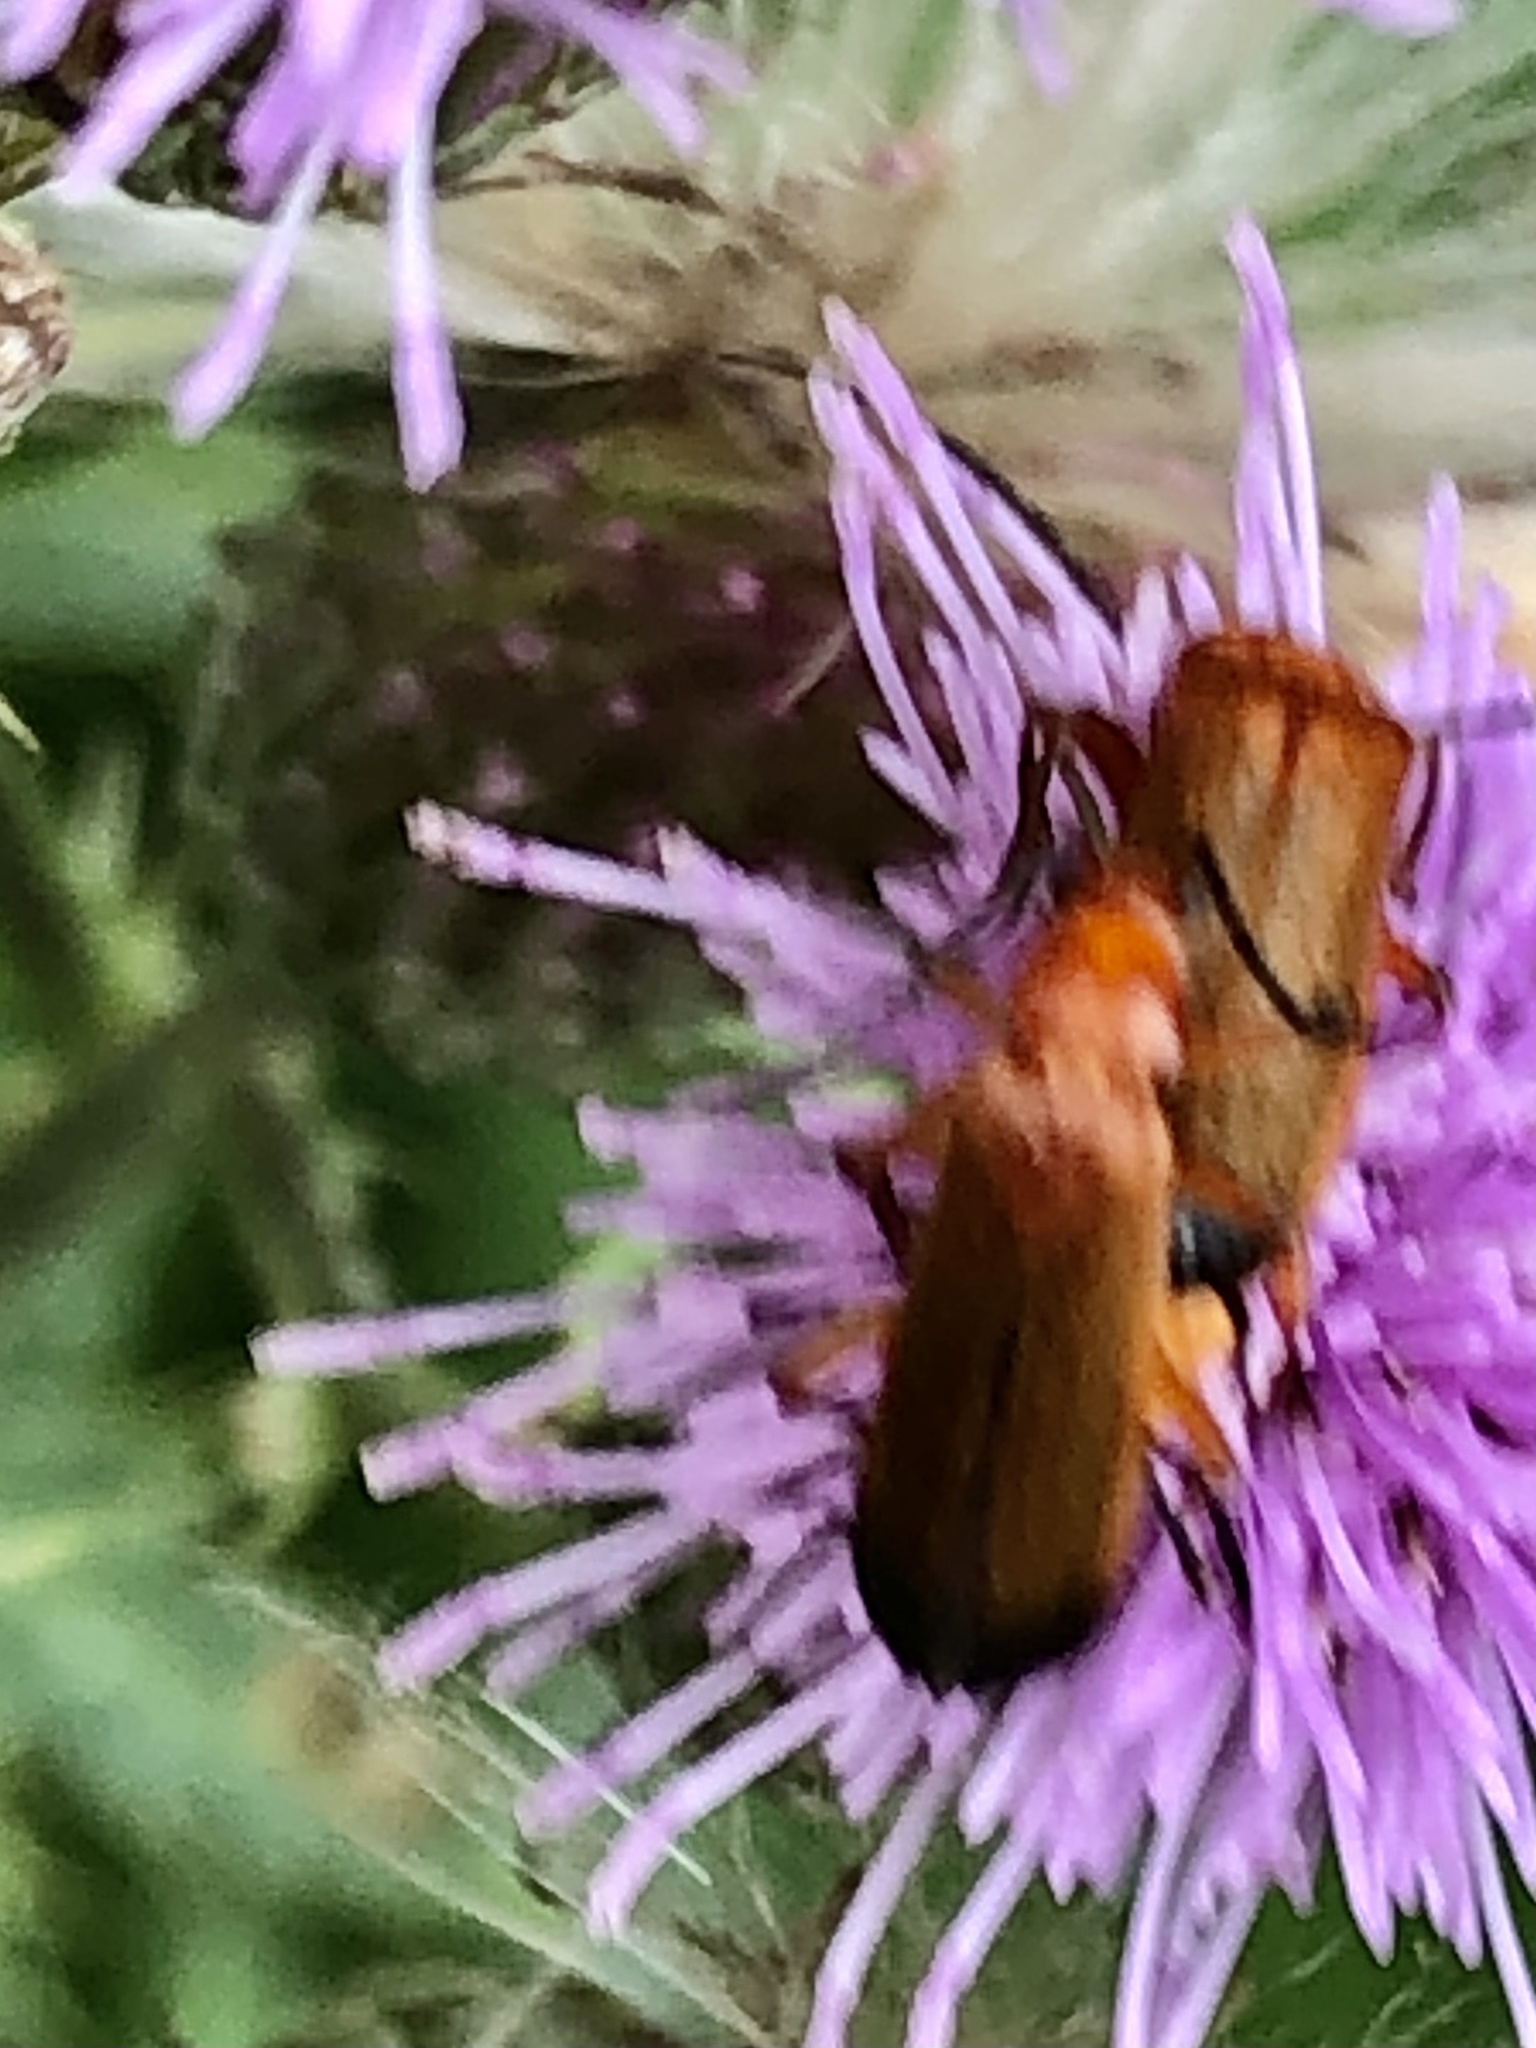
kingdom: Animalia
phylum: Arthropoda
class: Insecta
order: Coleoptera
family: Cantharidae
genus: Rhagonycha
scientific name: Rhagonycha fulva
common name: Common red soldier beetle
